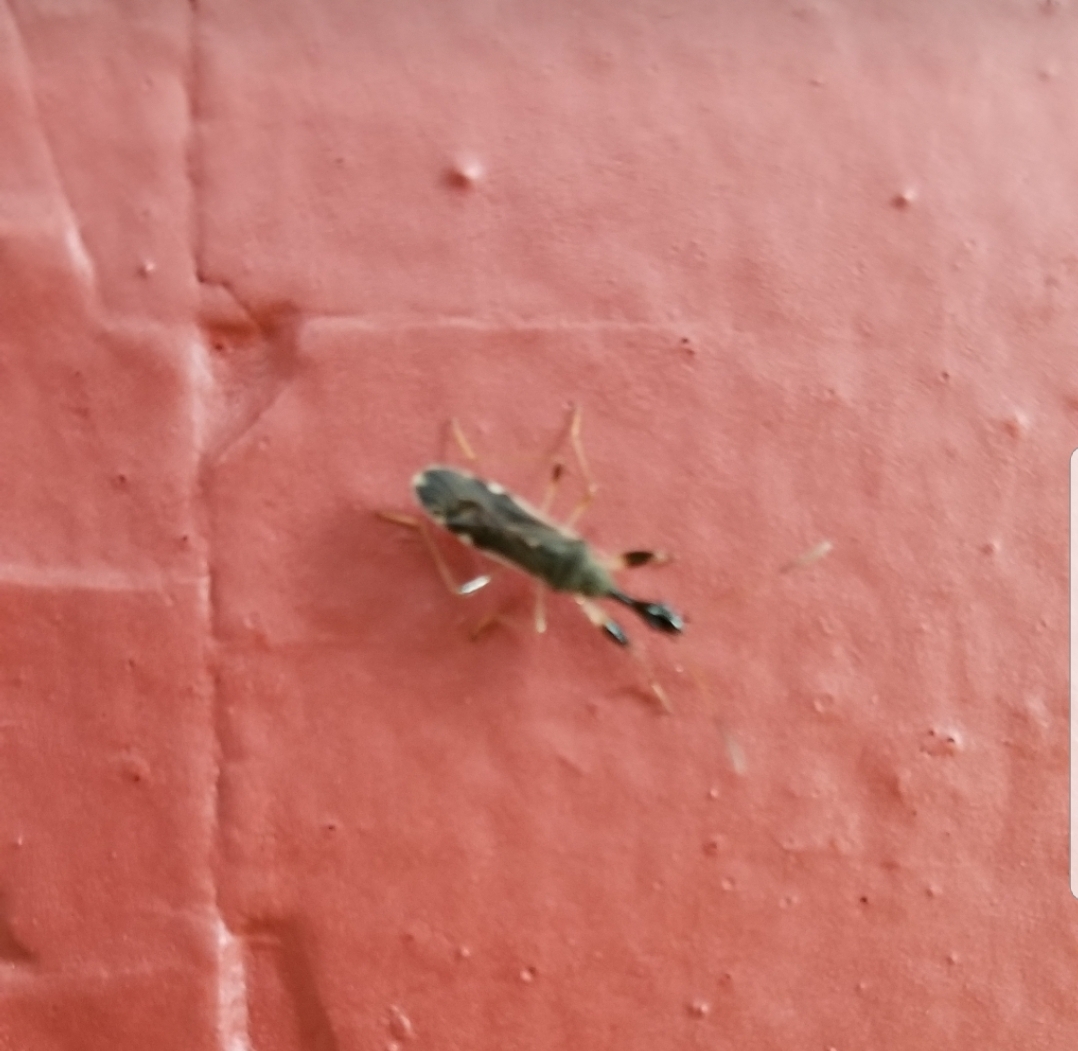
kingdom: Animalia
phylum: Arthropoda
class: Insecta
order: Hemiptera
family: Rhyparochromidae
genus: Myodocha
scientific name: Myodocha serripes
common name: Long-necked seed bug
